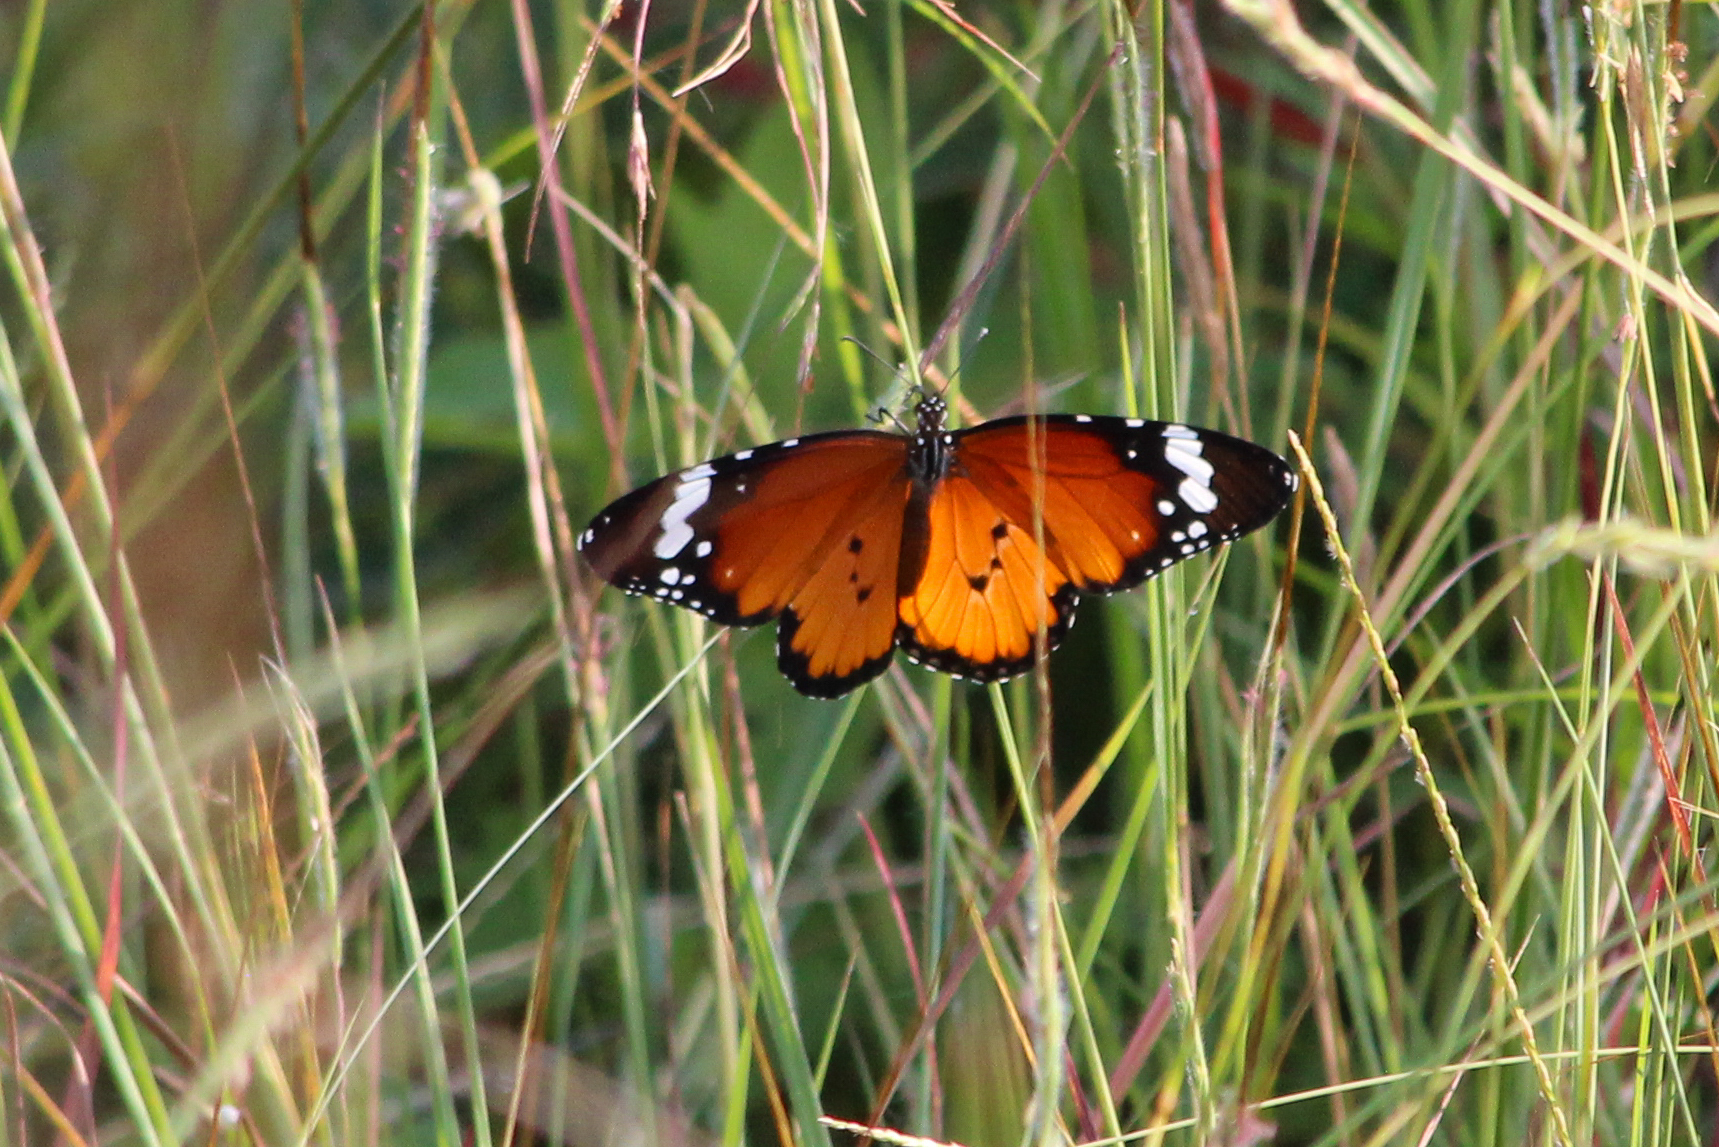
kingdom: Animalia
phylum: Arthropoda
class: Insecta
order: Lepidoptera
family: Nymphalidae
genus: Danaus
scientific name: Danaus chrysippus
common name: Plain tiger
